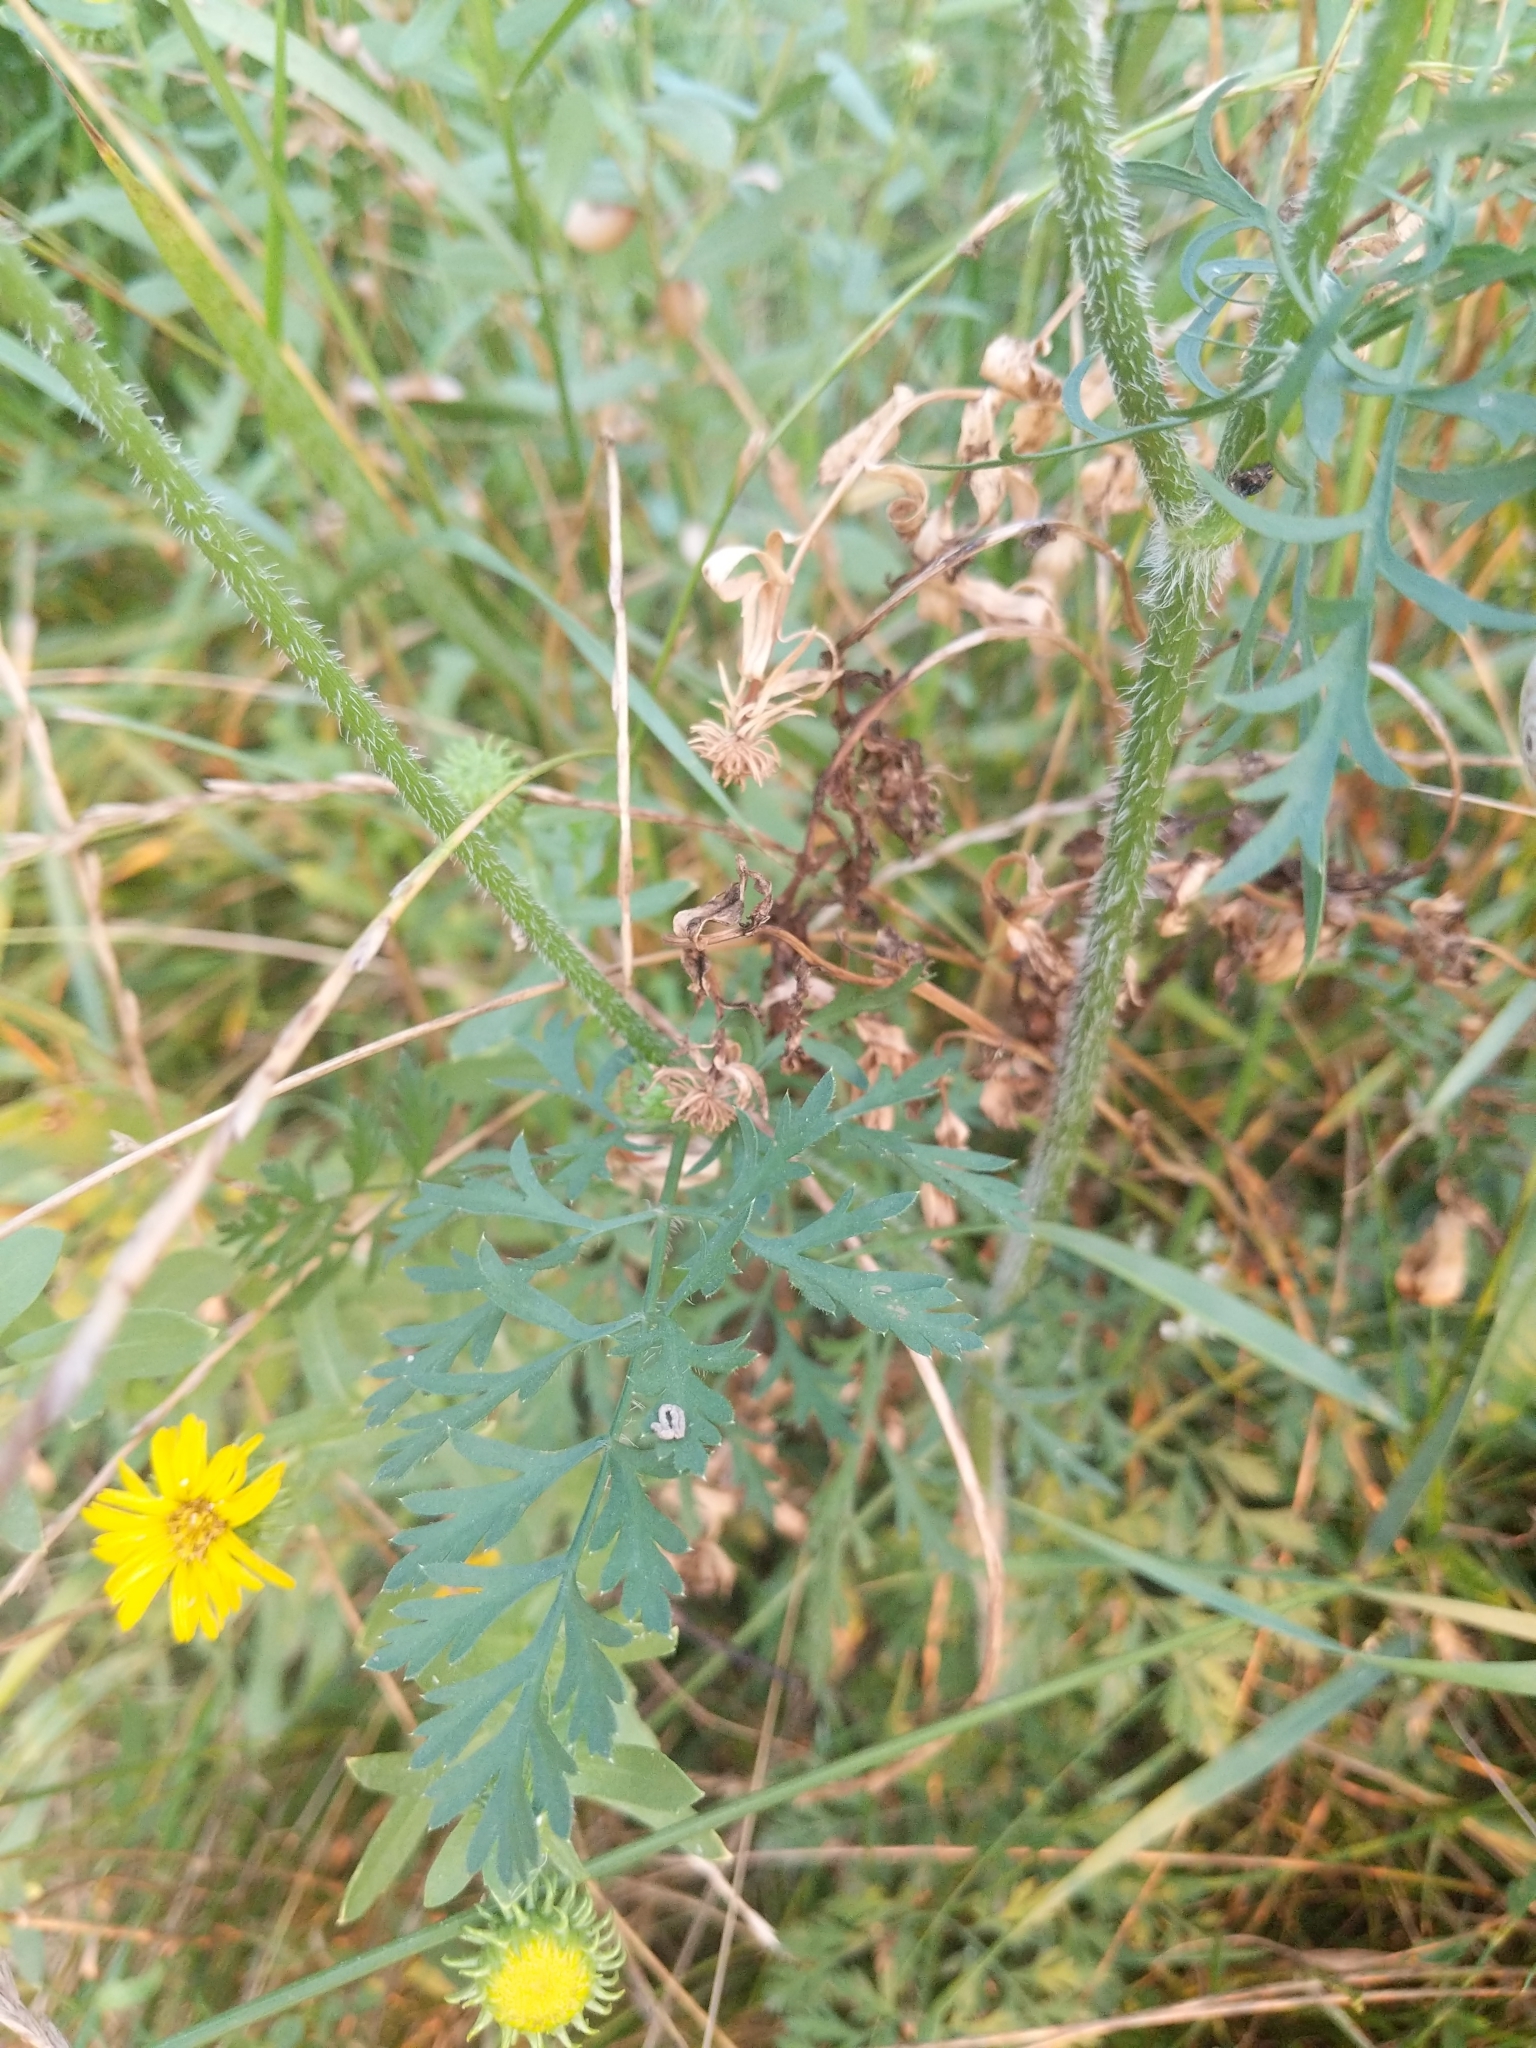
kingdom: Plantae
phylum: Tracheophyta
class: Magnoliopsida
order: Apiales
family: Apiaceae
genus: Daucus
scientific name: Daucus carota
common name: Wild carrot
